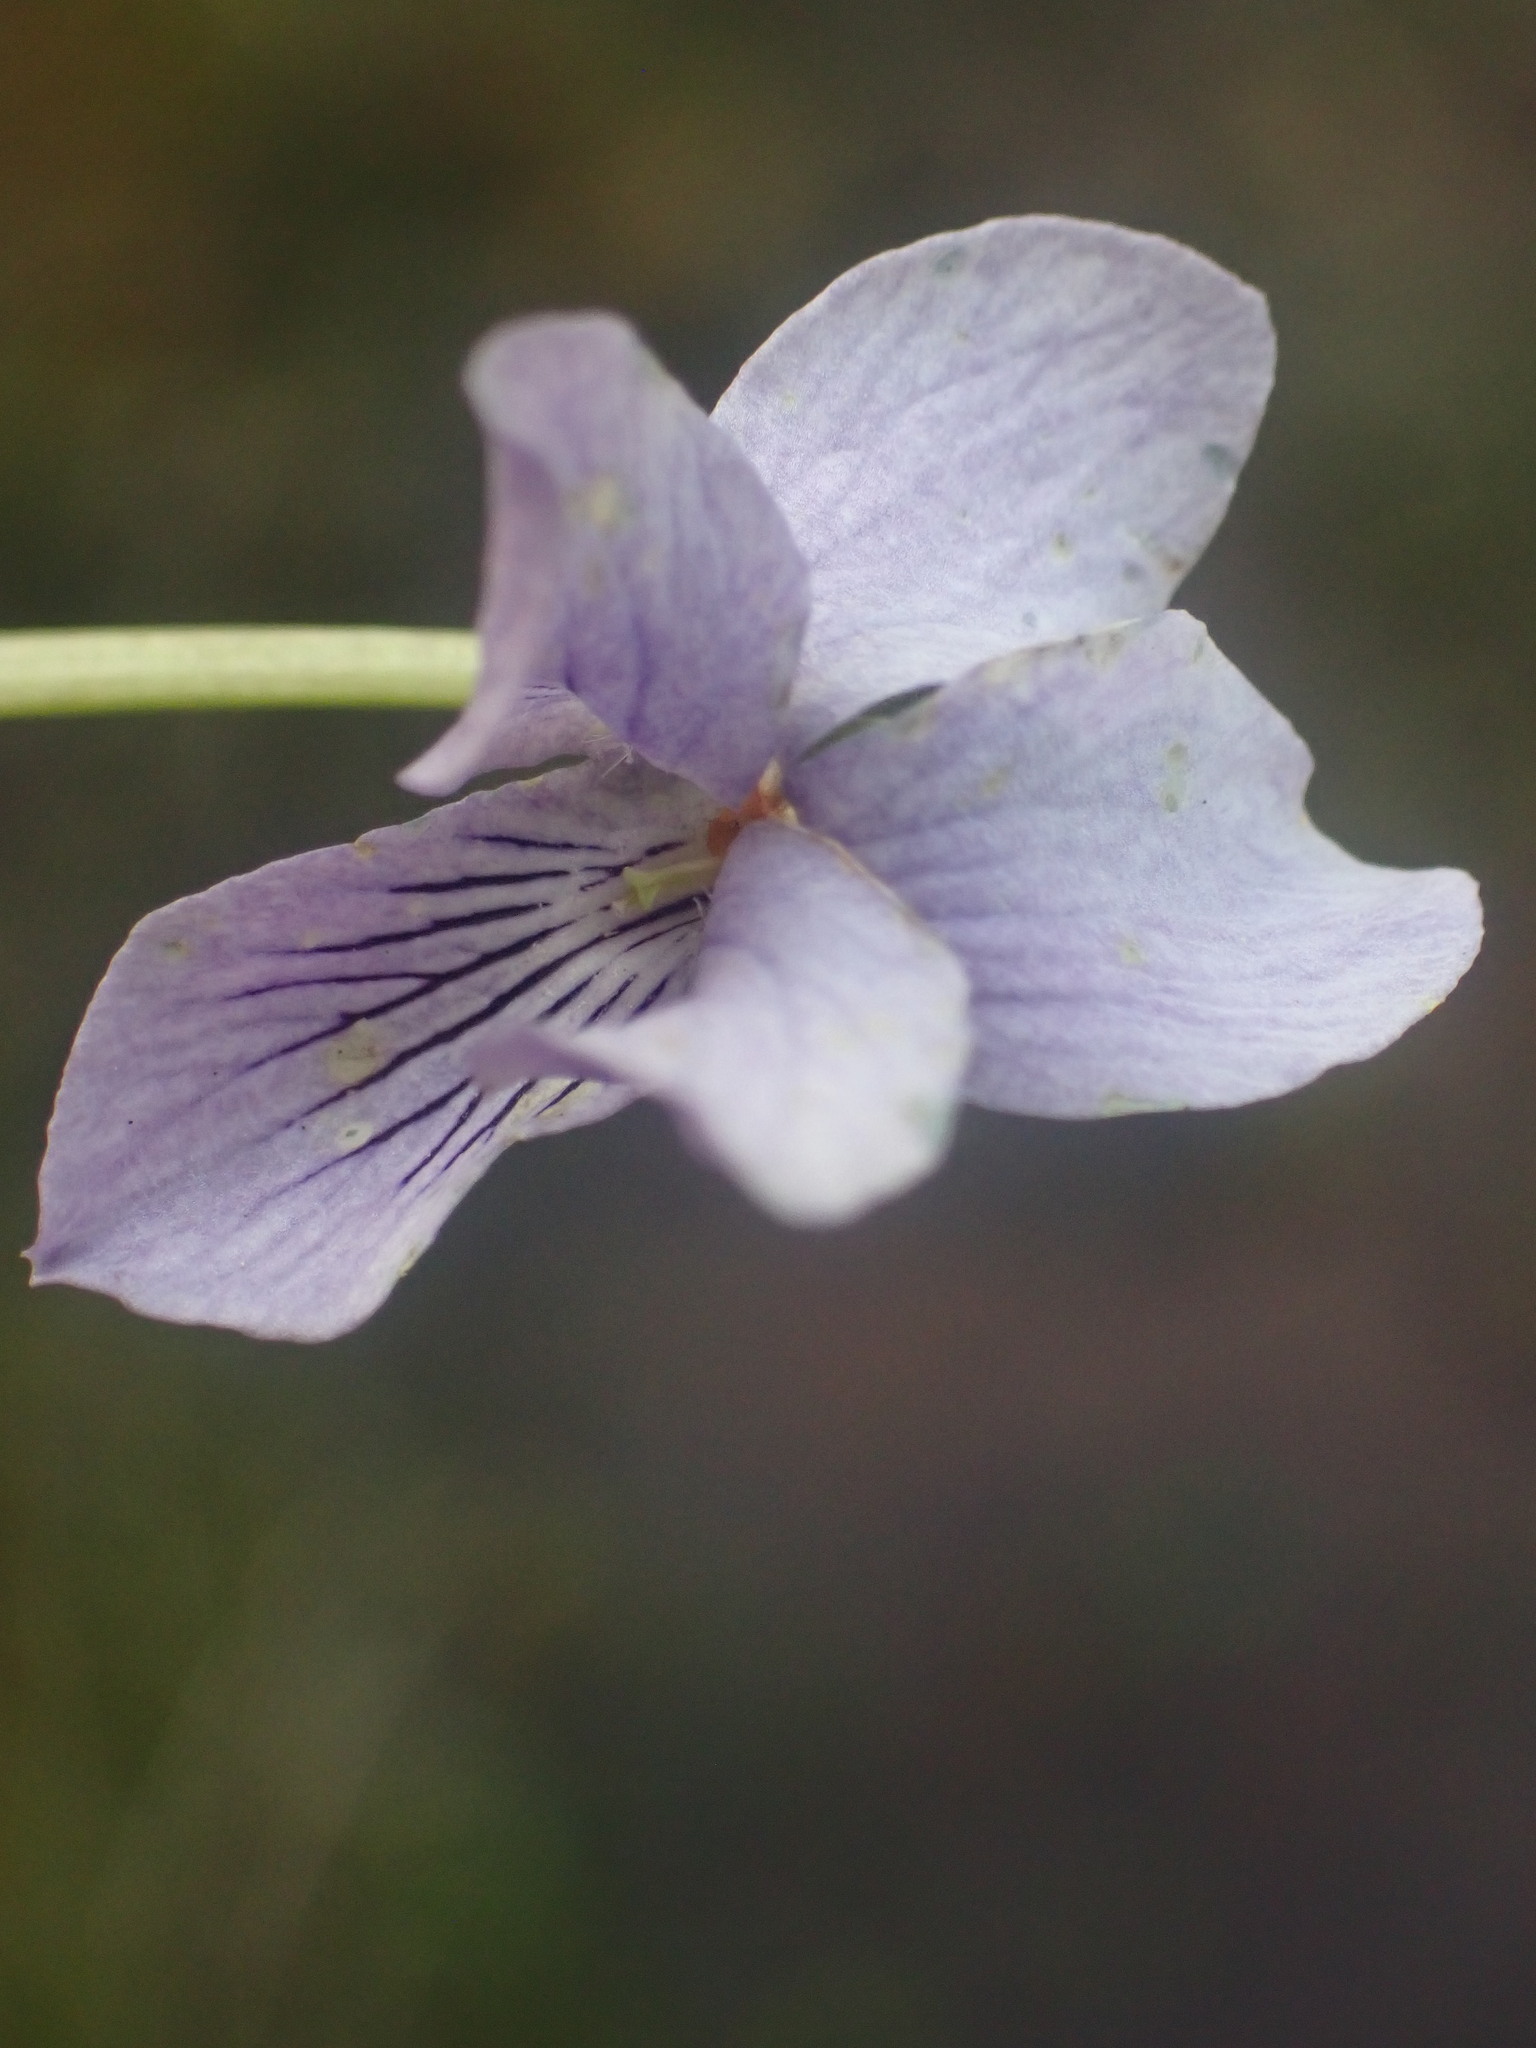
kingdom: Plantae
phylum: Tracheophyta
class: Magnoliopsida
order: Malpighiales
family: Violaceae
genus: Viola
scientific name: Viola palustris
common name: Marsh violet
